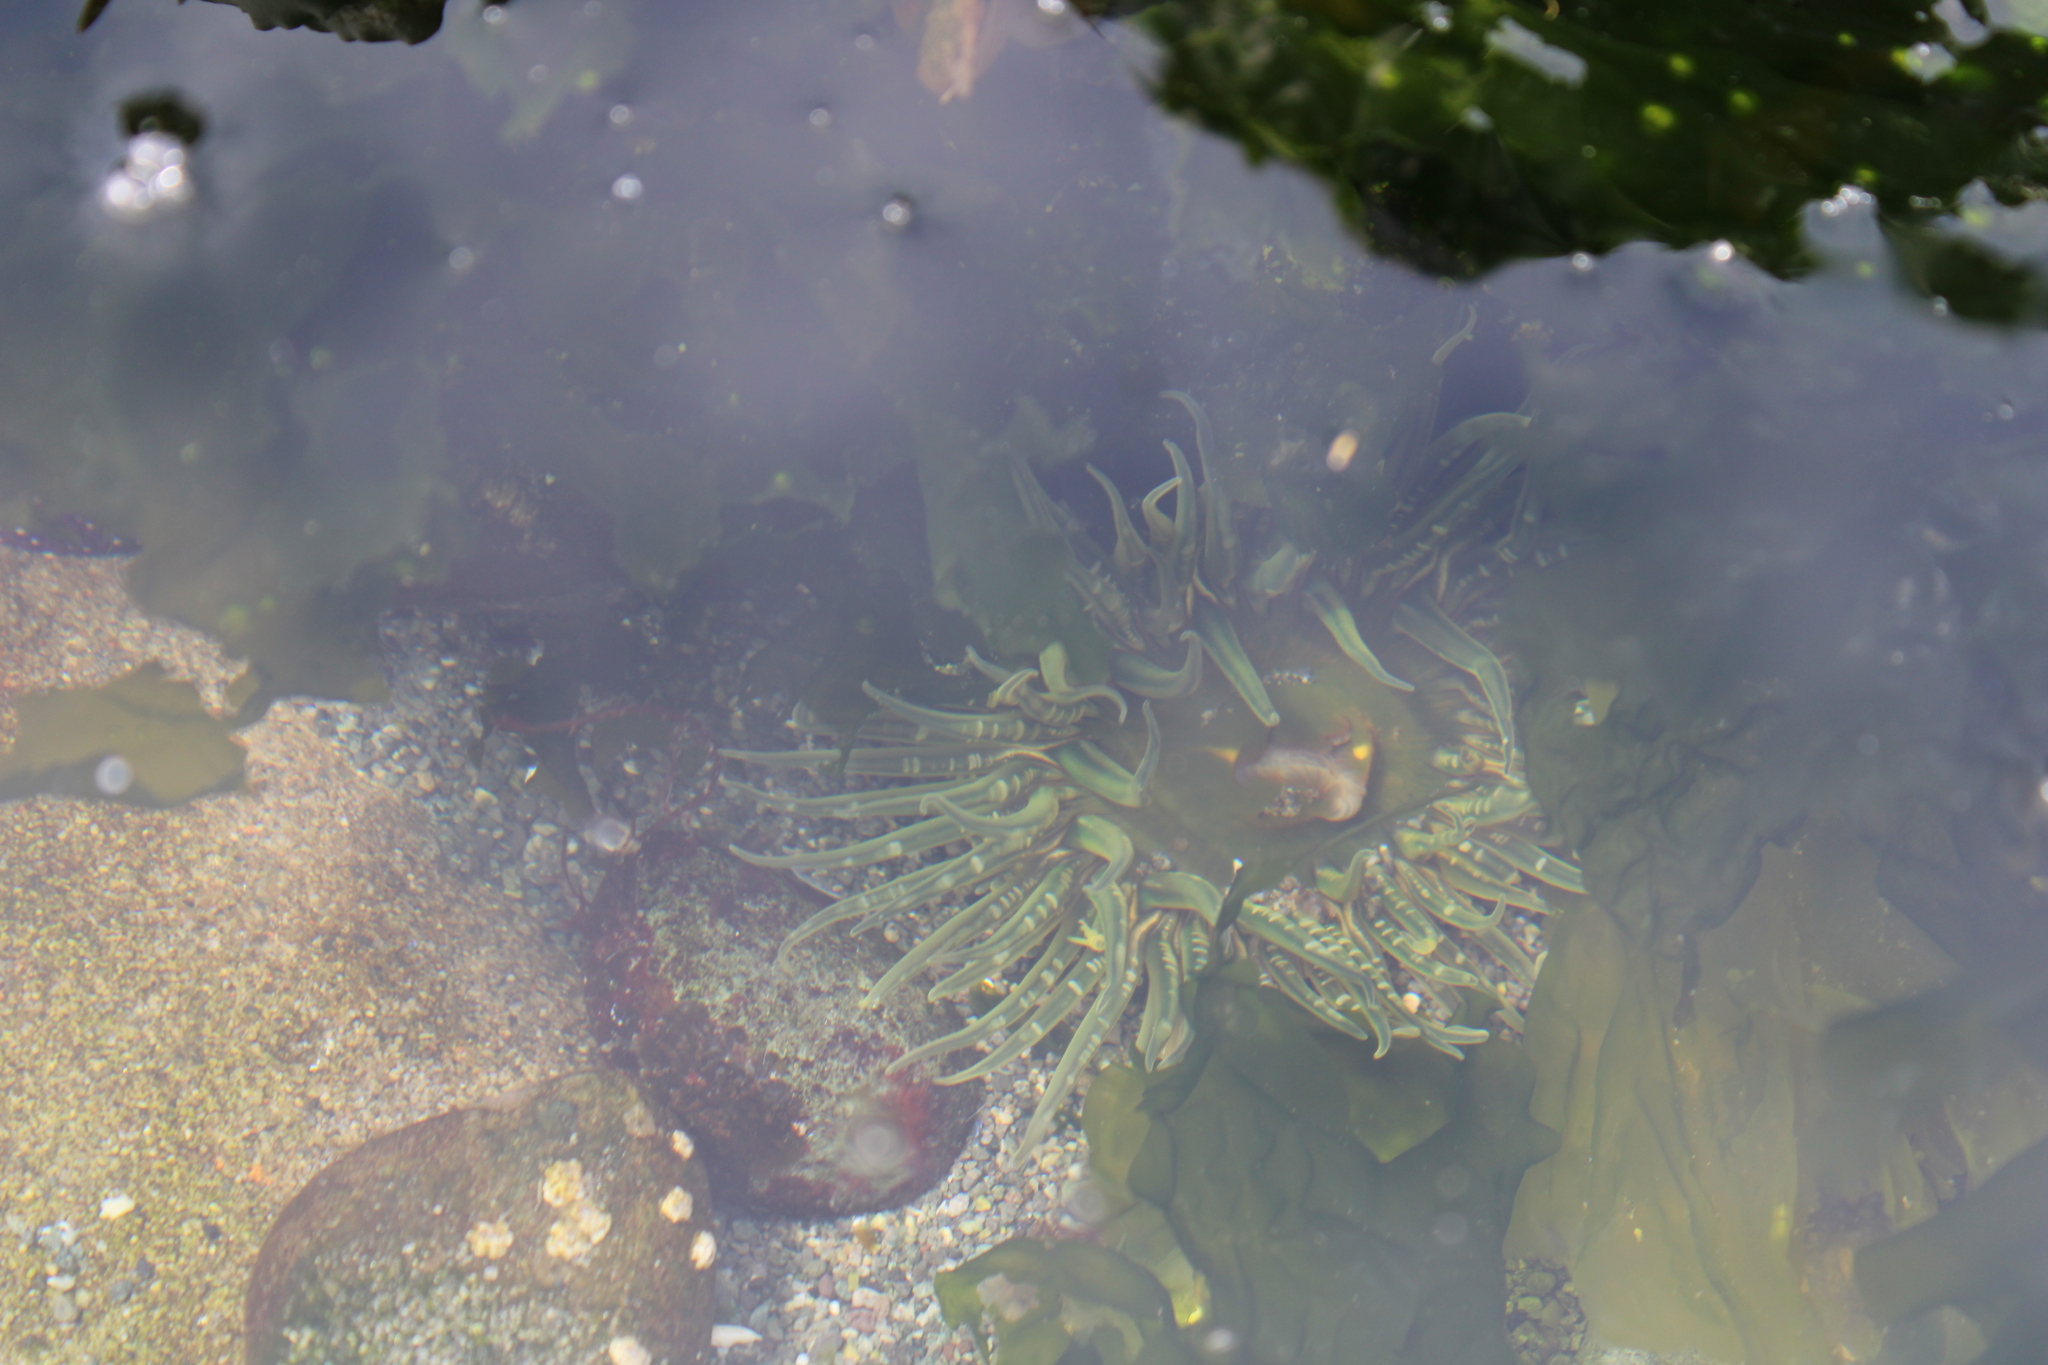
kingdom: Animalia
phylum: Cnidaria
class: Anthozoa
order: Actiniaria
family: Actiniidae
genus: Anthopleura
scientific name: Anthopleura artemisia
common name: Buried sea anemone
